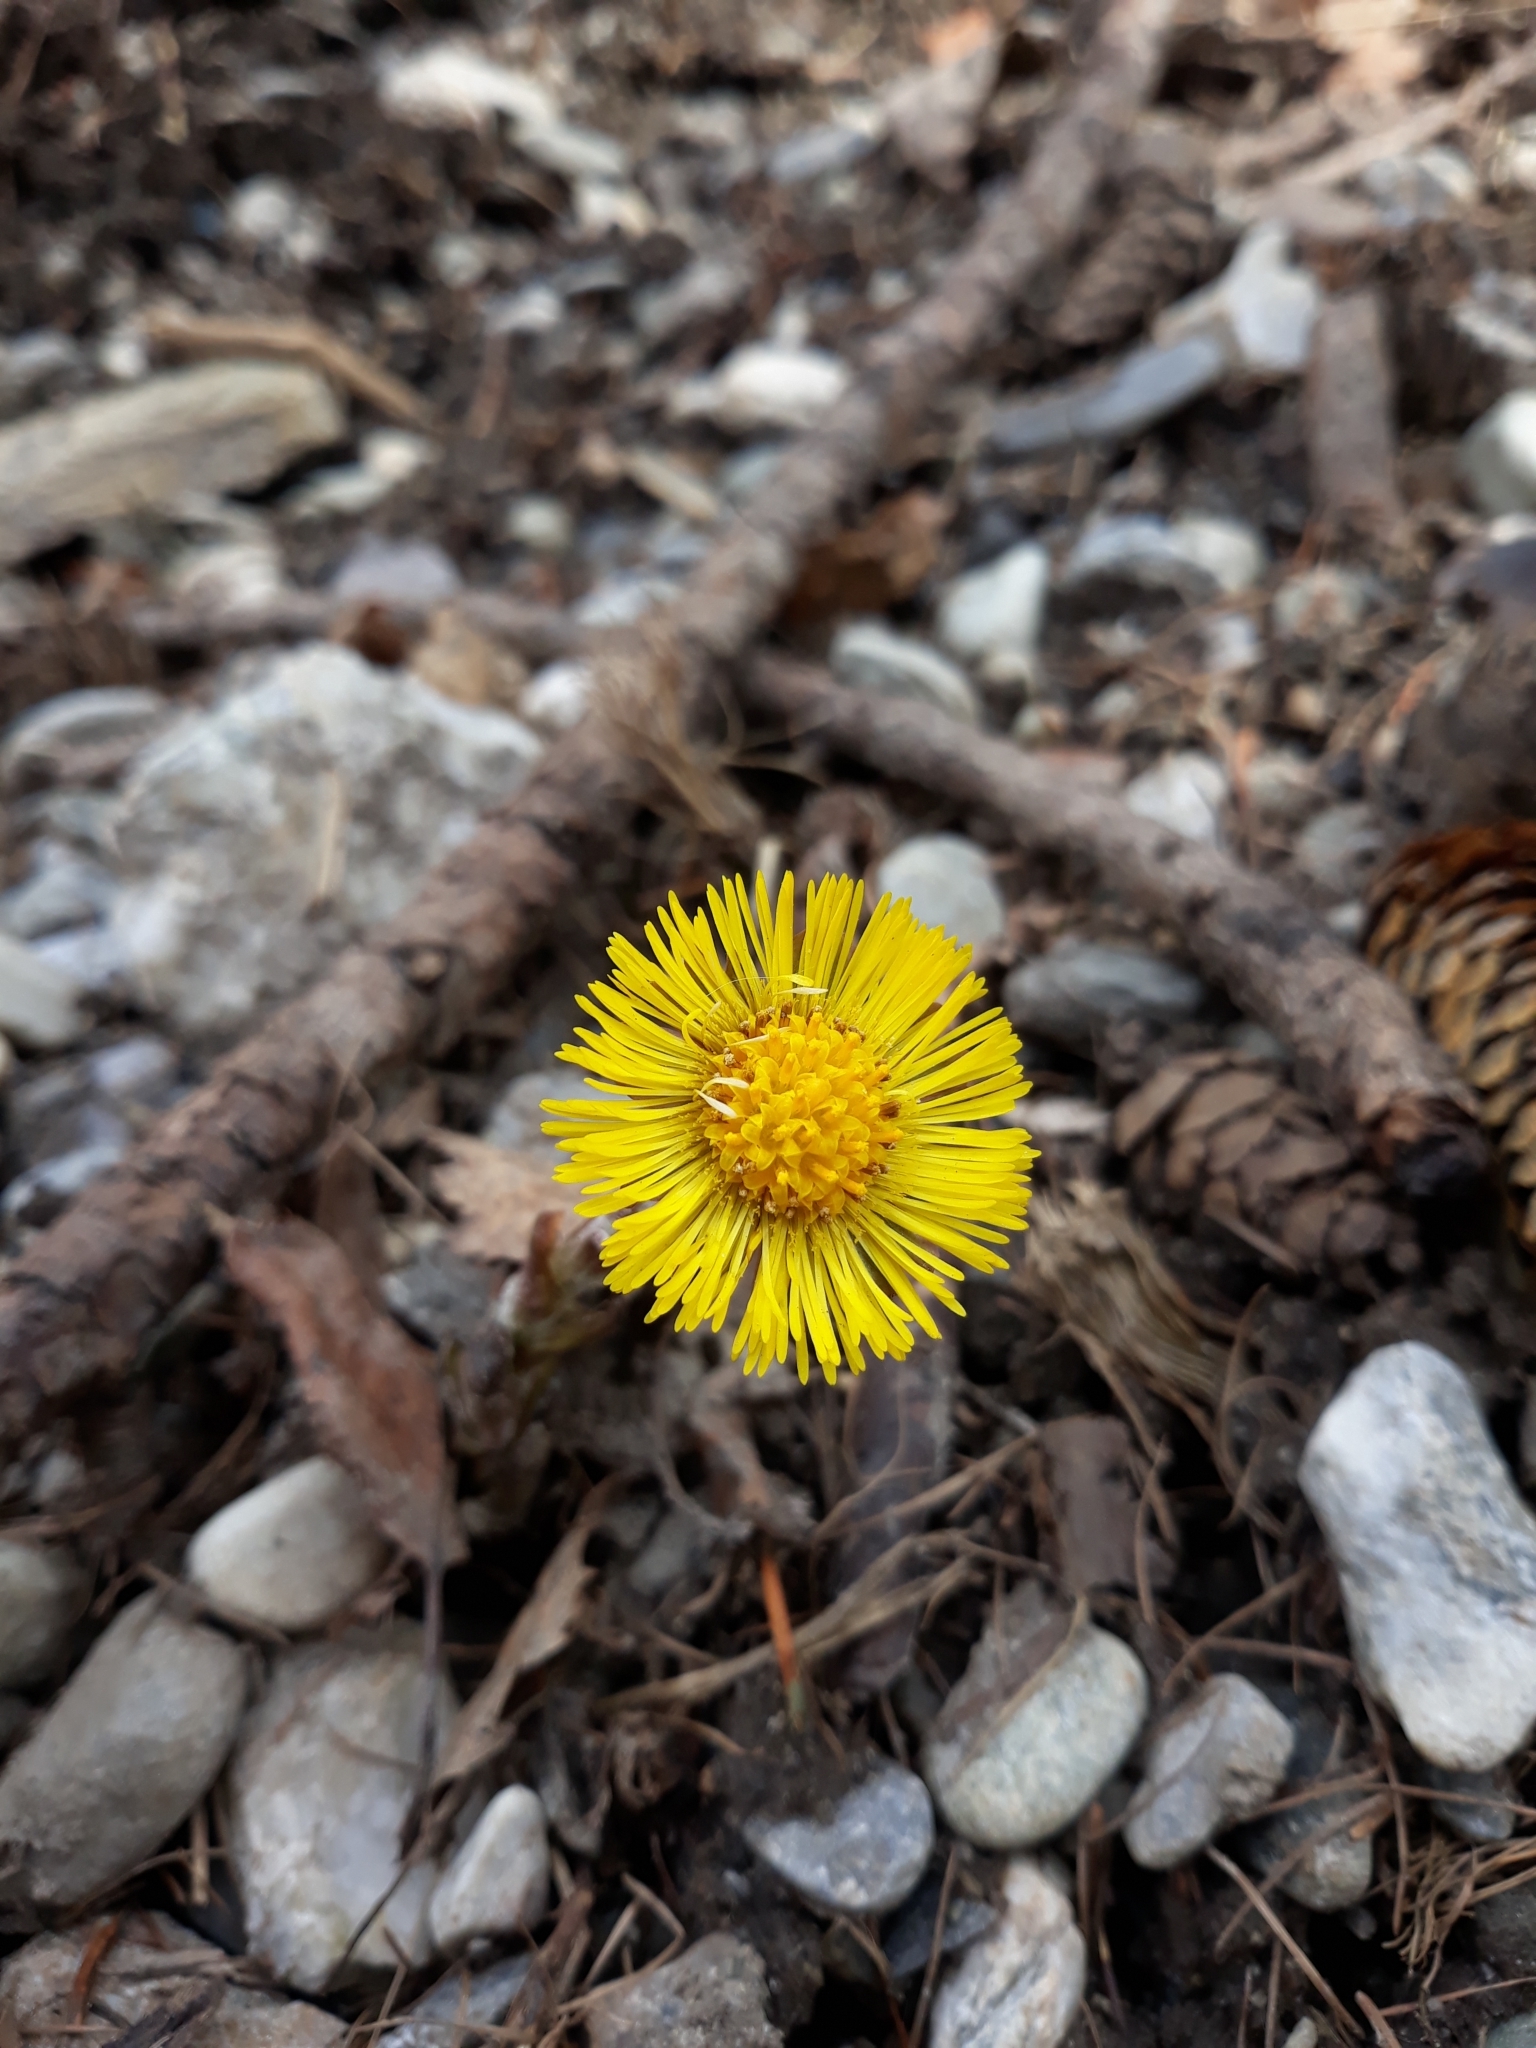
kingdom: Plantae
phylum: Tracheophyta
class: Magnoliopsida
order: Asterales
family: Asteraceae
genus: Tussilago
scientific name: Tussilago farfara
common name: Coltsfoot
